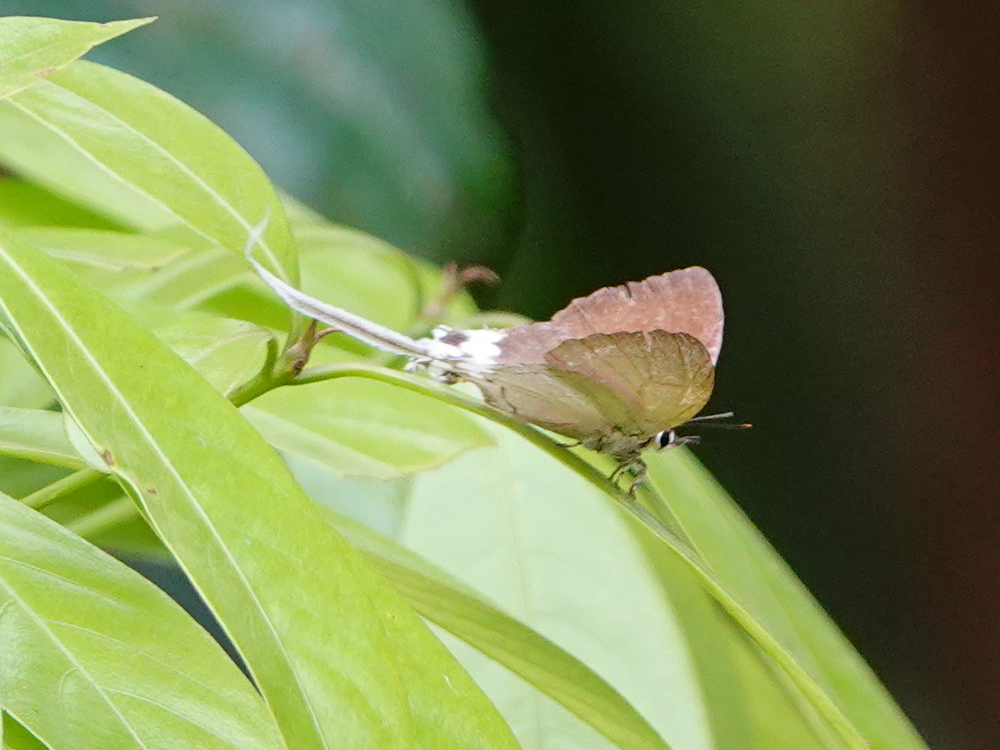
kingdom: Animalia
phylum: Arthropoda
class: Insecta
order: Lepidoptera
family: Lycaenidae
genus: Cheritra
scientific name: Cheritra freja
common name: Common imperial
